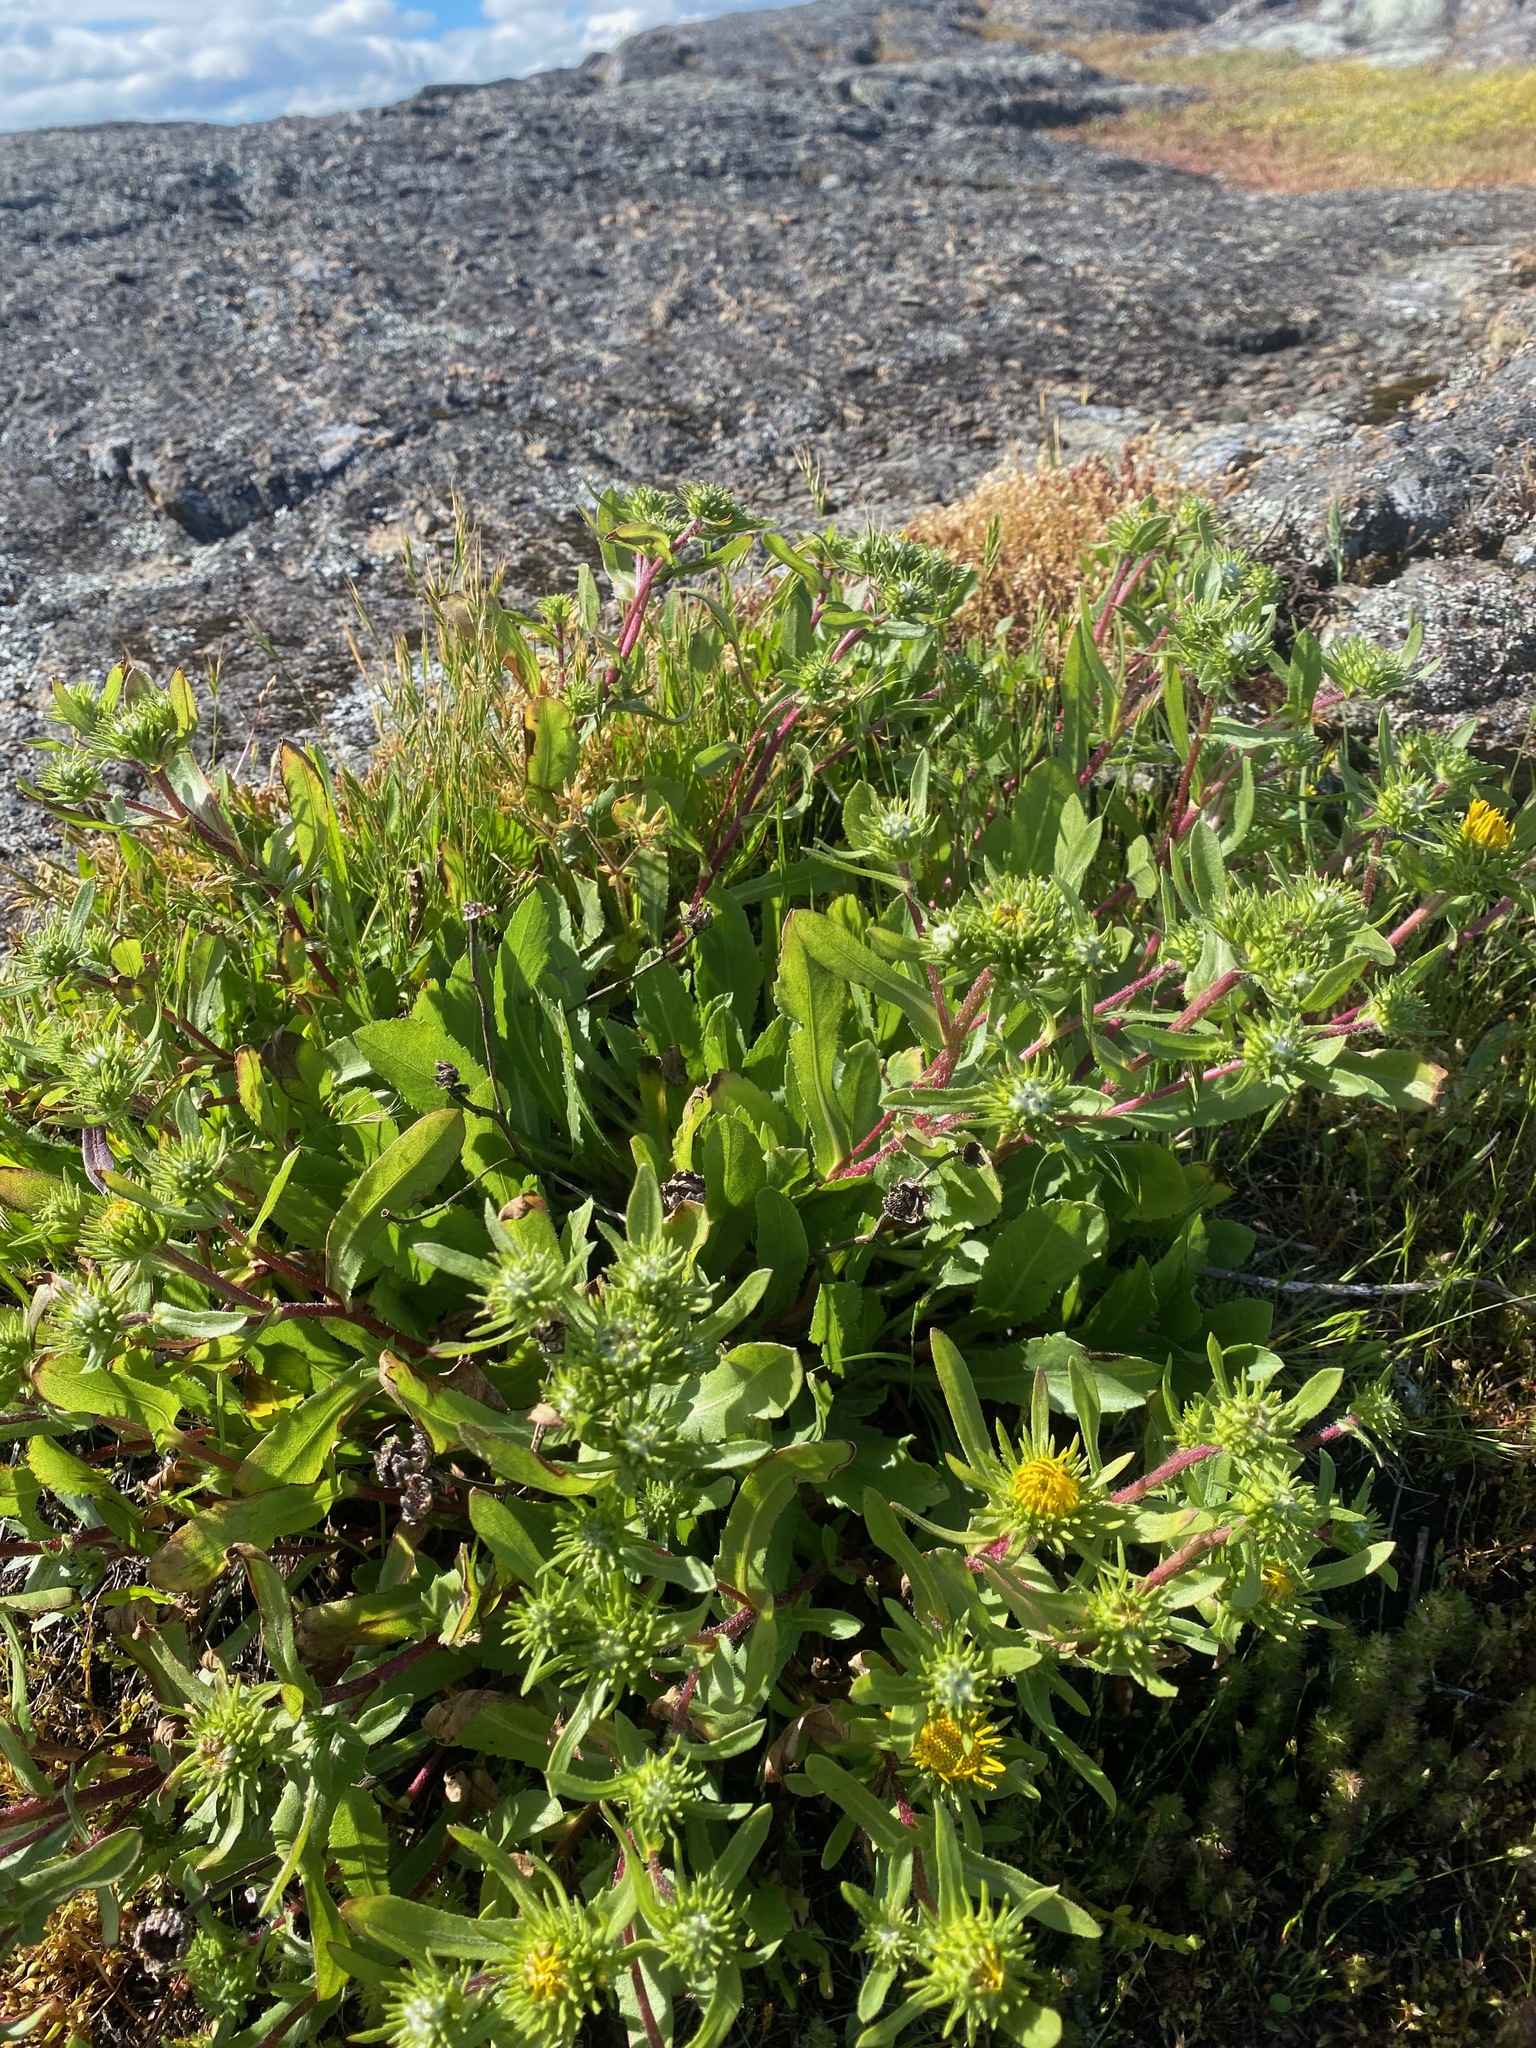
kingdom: Plantae
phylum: Tracheophyta
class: Magnoliopsida
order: Asterales
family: Asteraceae
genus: Grindelia
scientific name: Grindelia hirsutula
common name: Hairy gumweed
